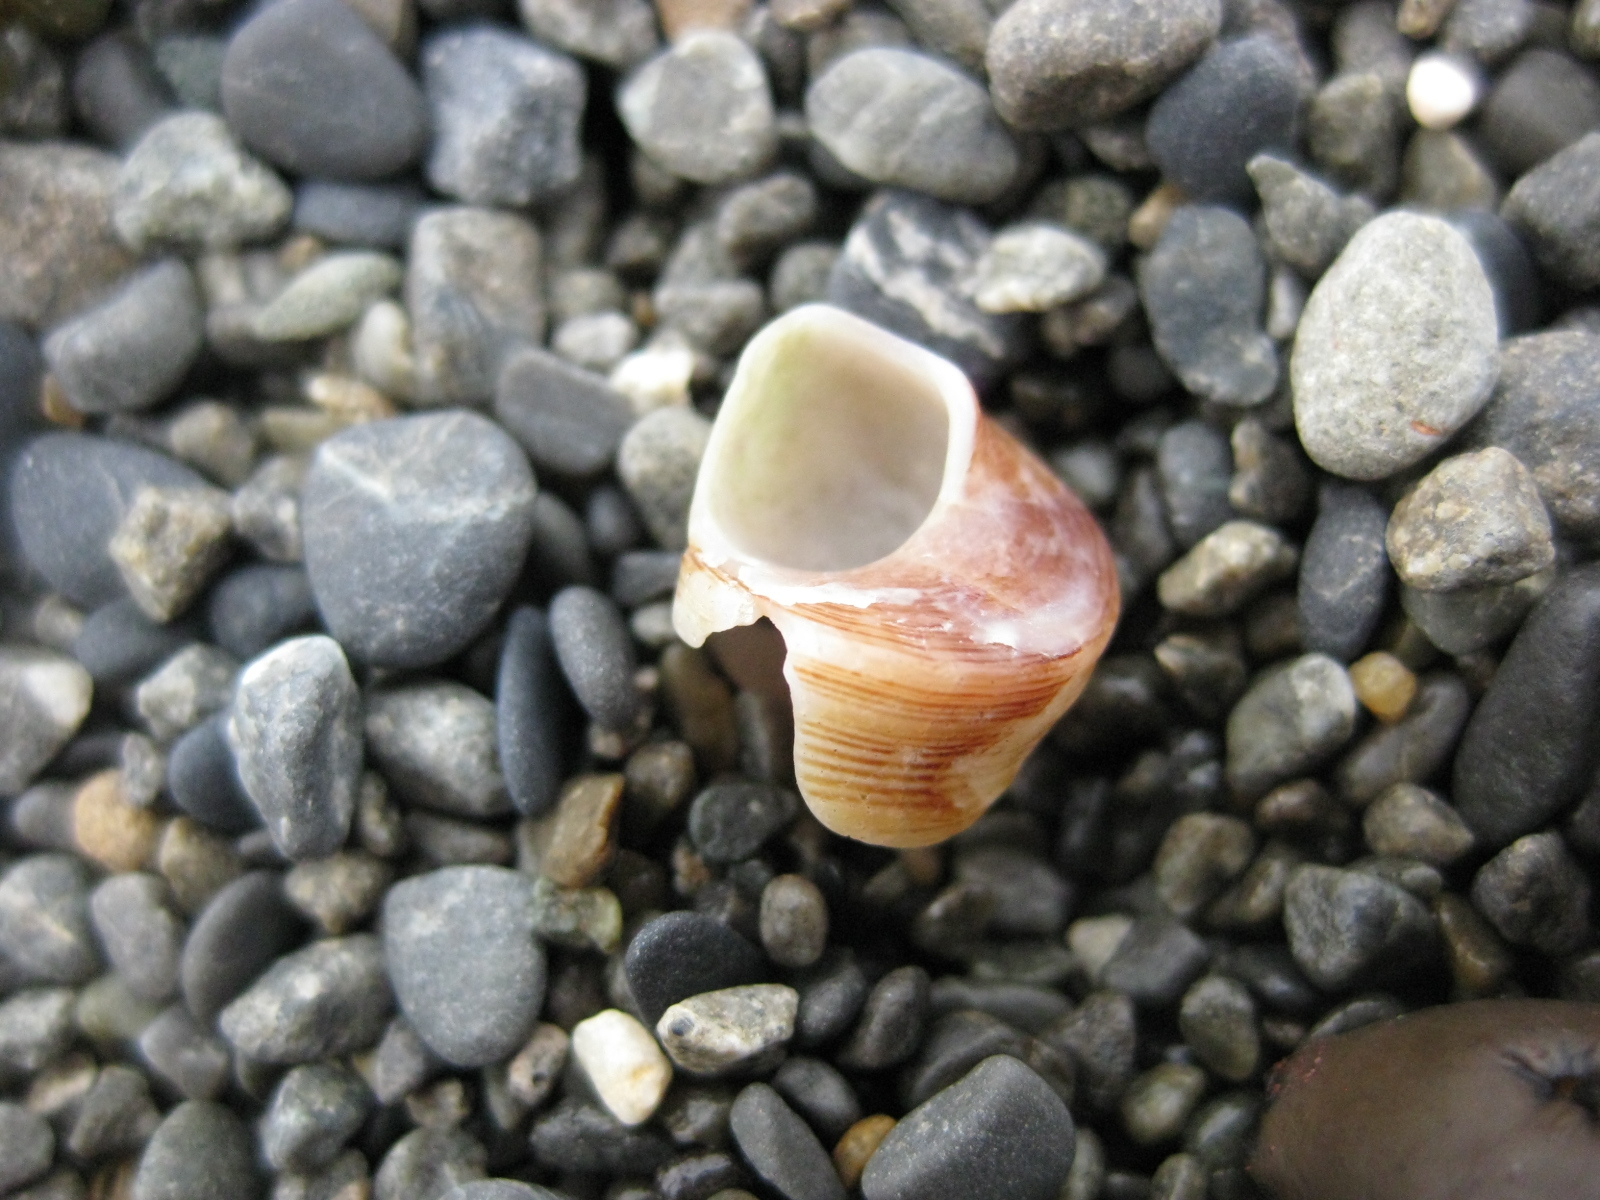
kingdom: Animalia
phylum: Mollusca
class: Gastropoda
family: Turritellidae
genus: Maoricolpus
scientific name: Maoricolpus roseus
